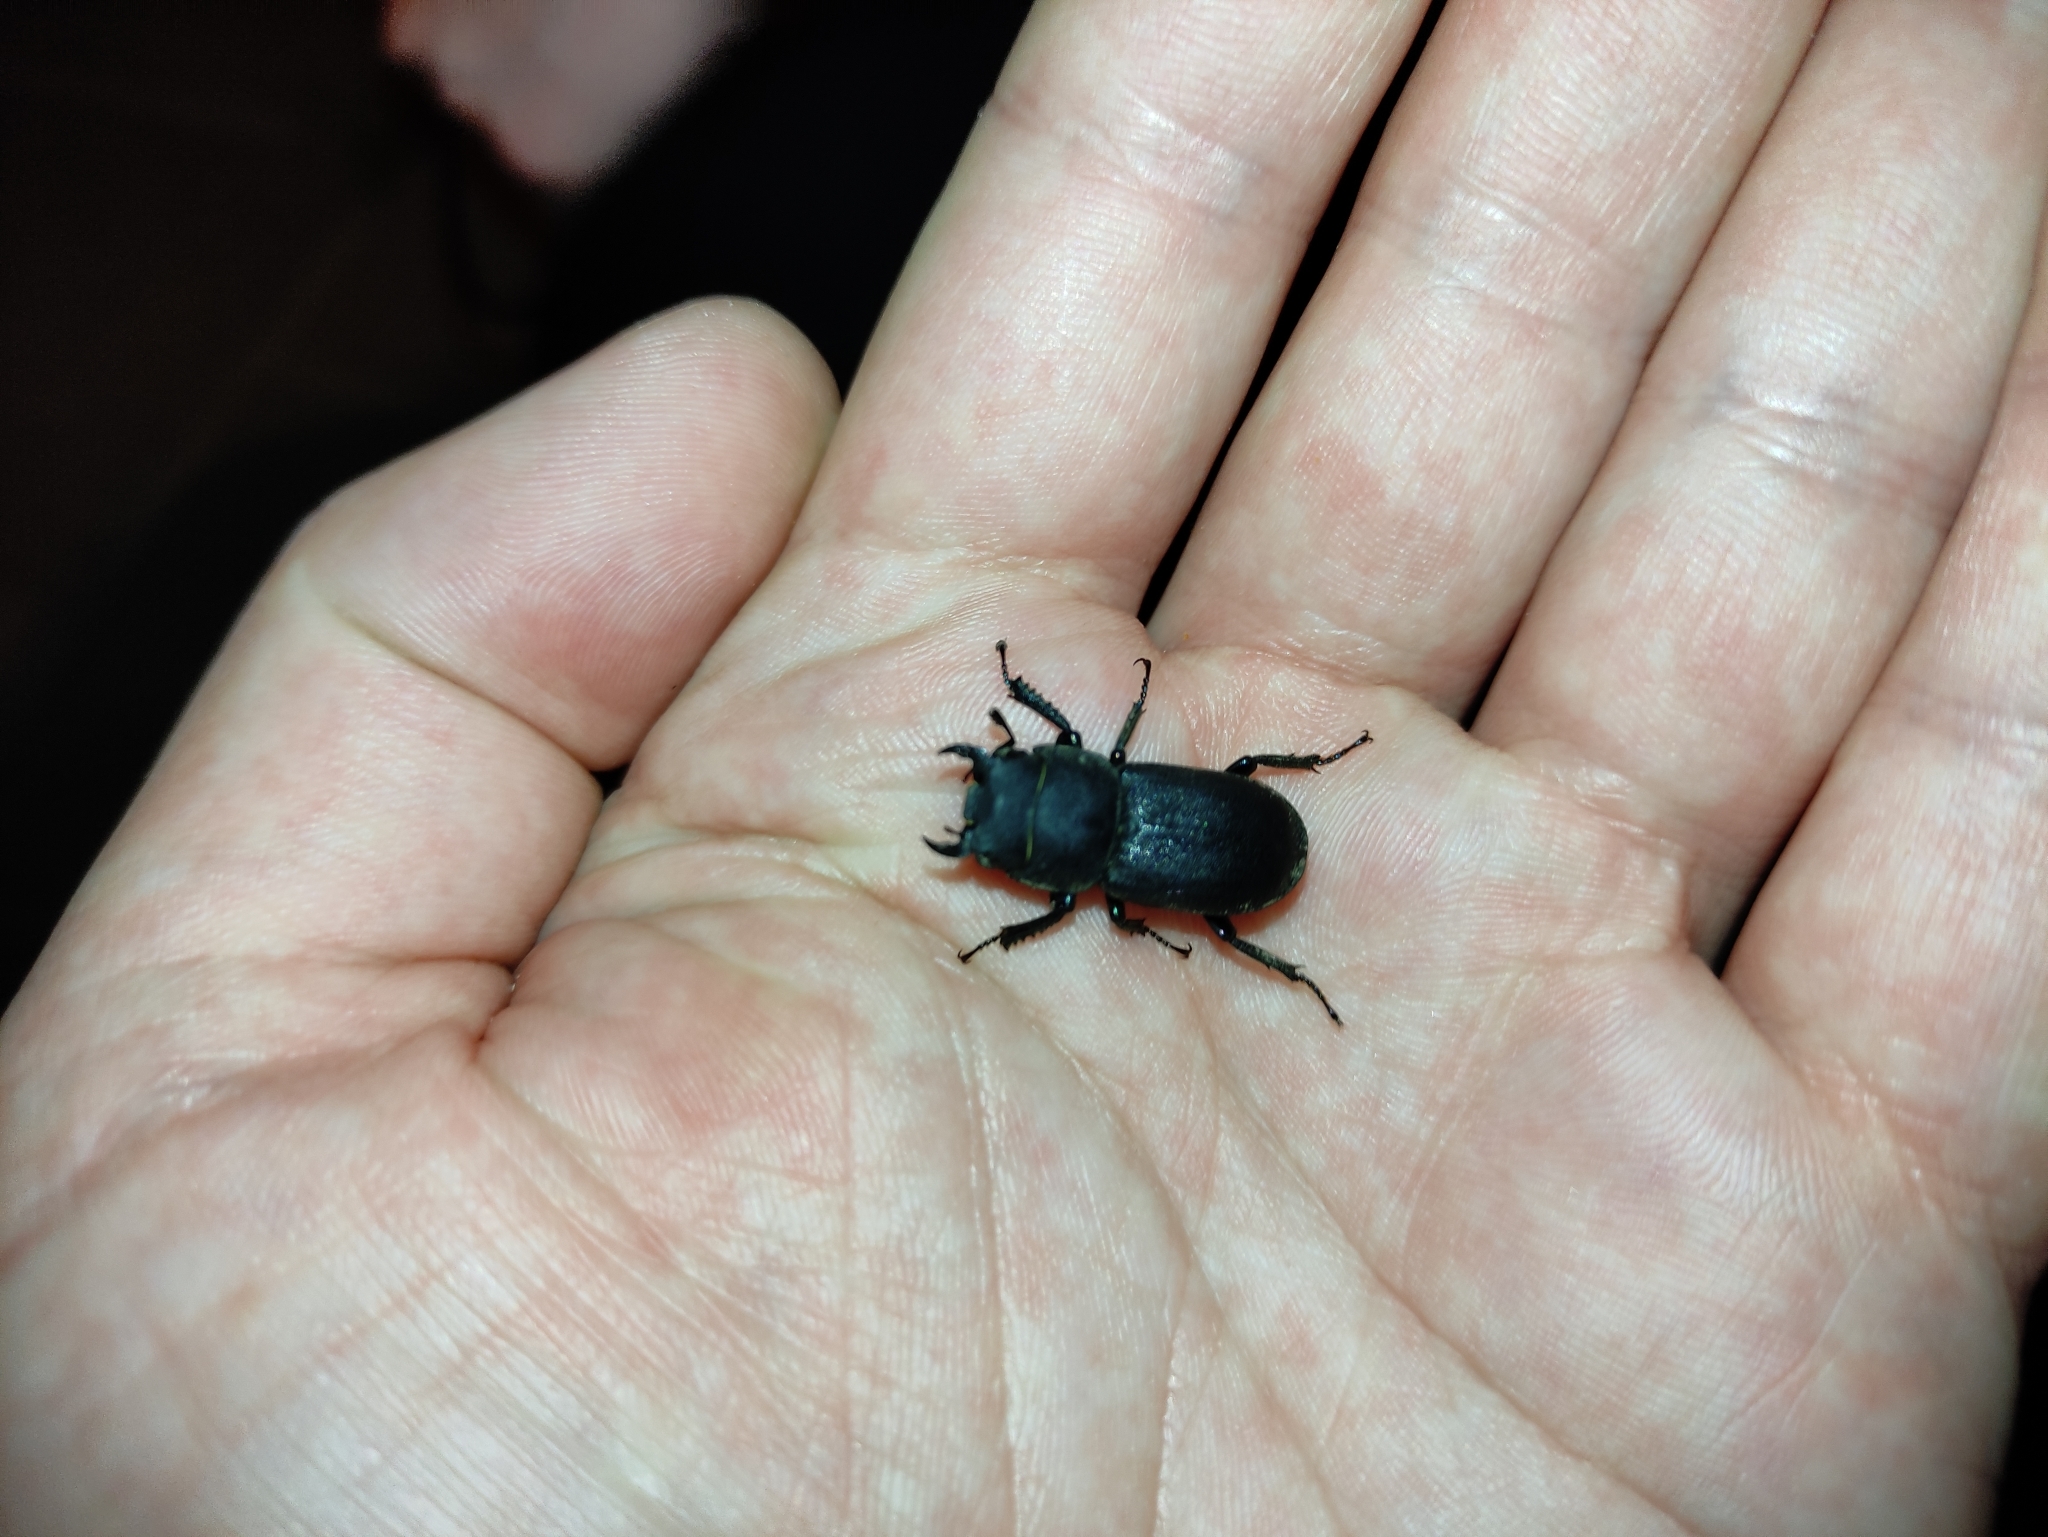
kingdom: Animalia
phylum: Arthropoda
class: Insecta
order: Coleoptera
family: Lucanidae
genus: Dorcus
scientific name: Dorcus parallelipipedus
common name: Lesser stag beetle
